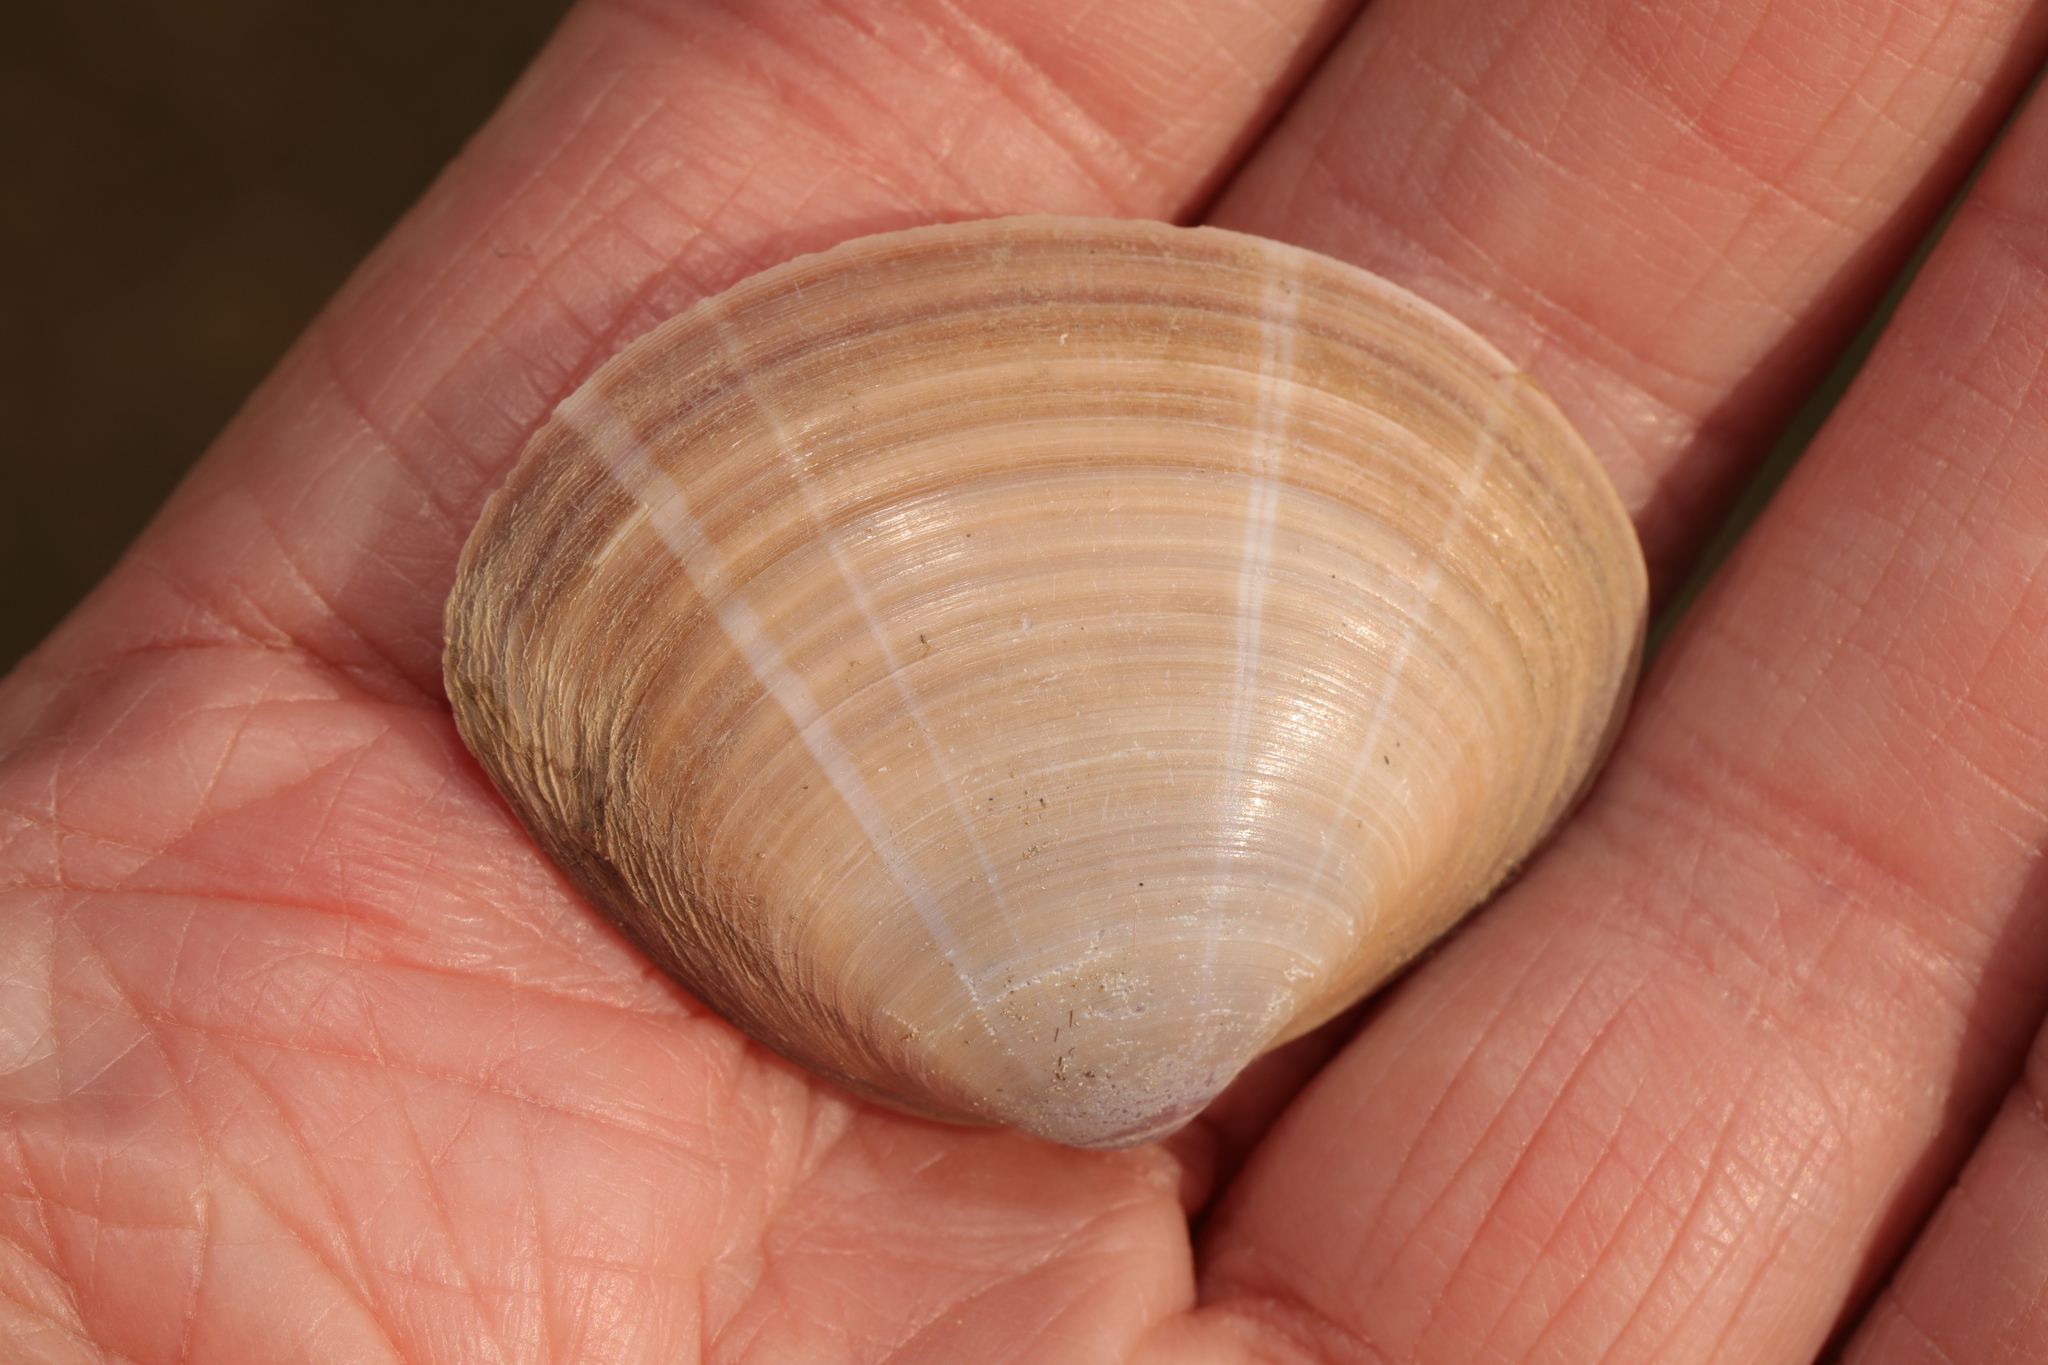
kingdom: Animalia
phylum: Mollusca
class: Bivalvia
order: Venerida
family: Mactridae
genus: Mactra
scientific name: Mactra stultorum
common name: Rayed trough shell
